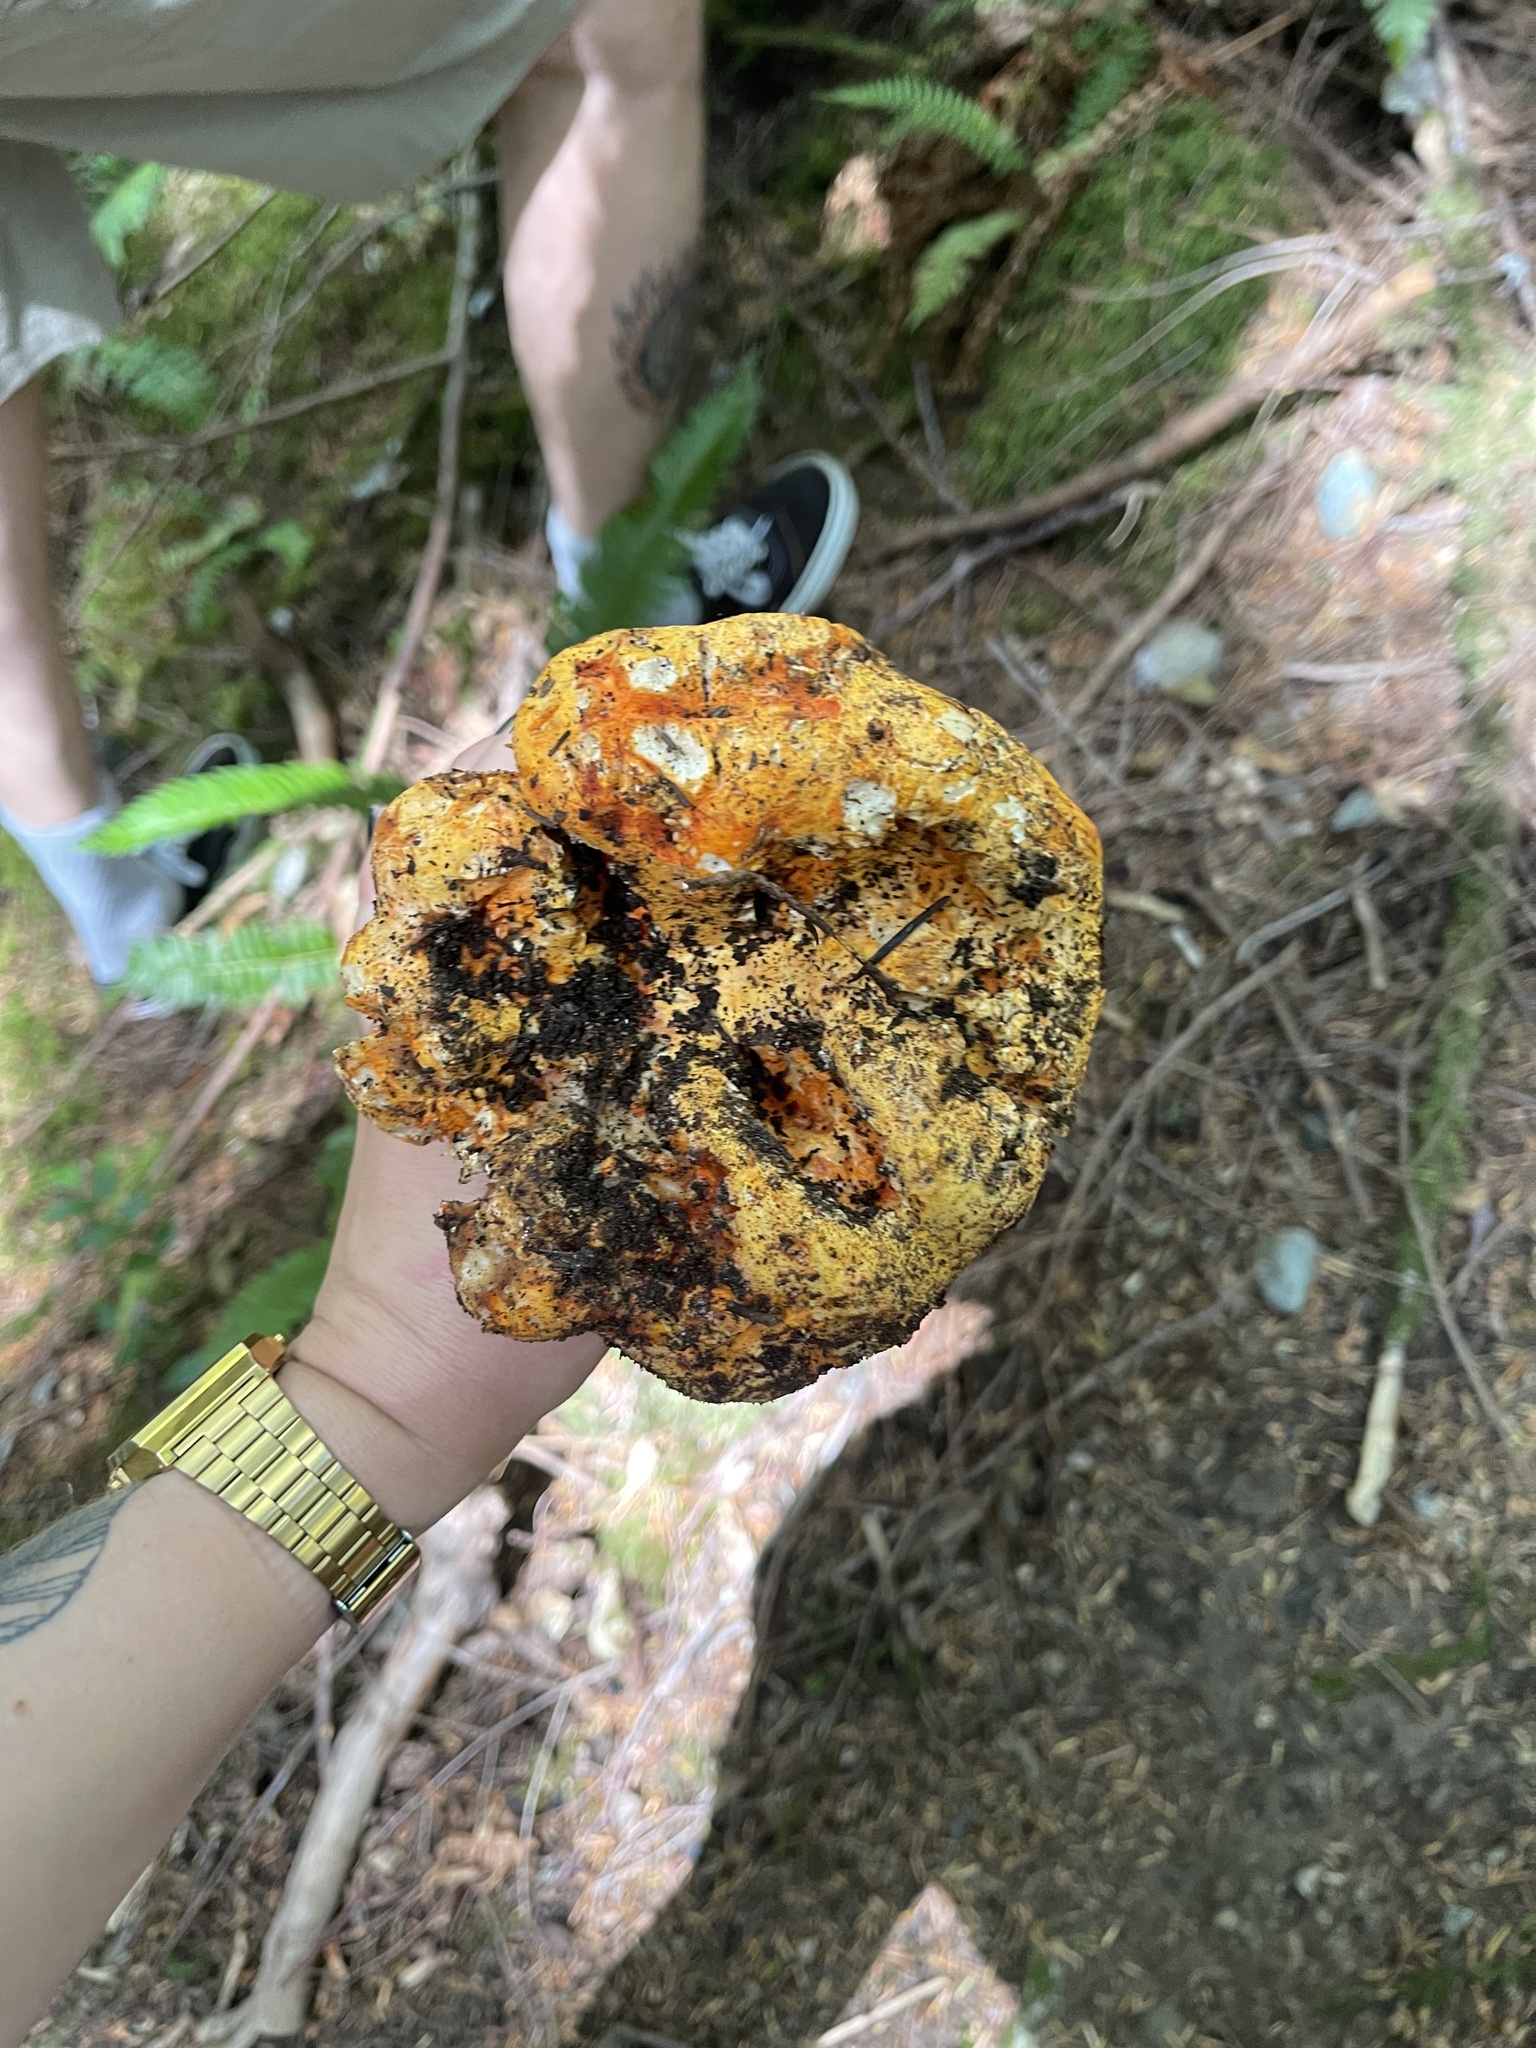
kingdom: Fungi
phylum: Ascomycota
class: Sordariomycetes
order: Hypocreales
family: Hypocreaceae
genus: Hypomyces
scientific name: Hypomyces lactifluorum
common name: Lobster mushroom
